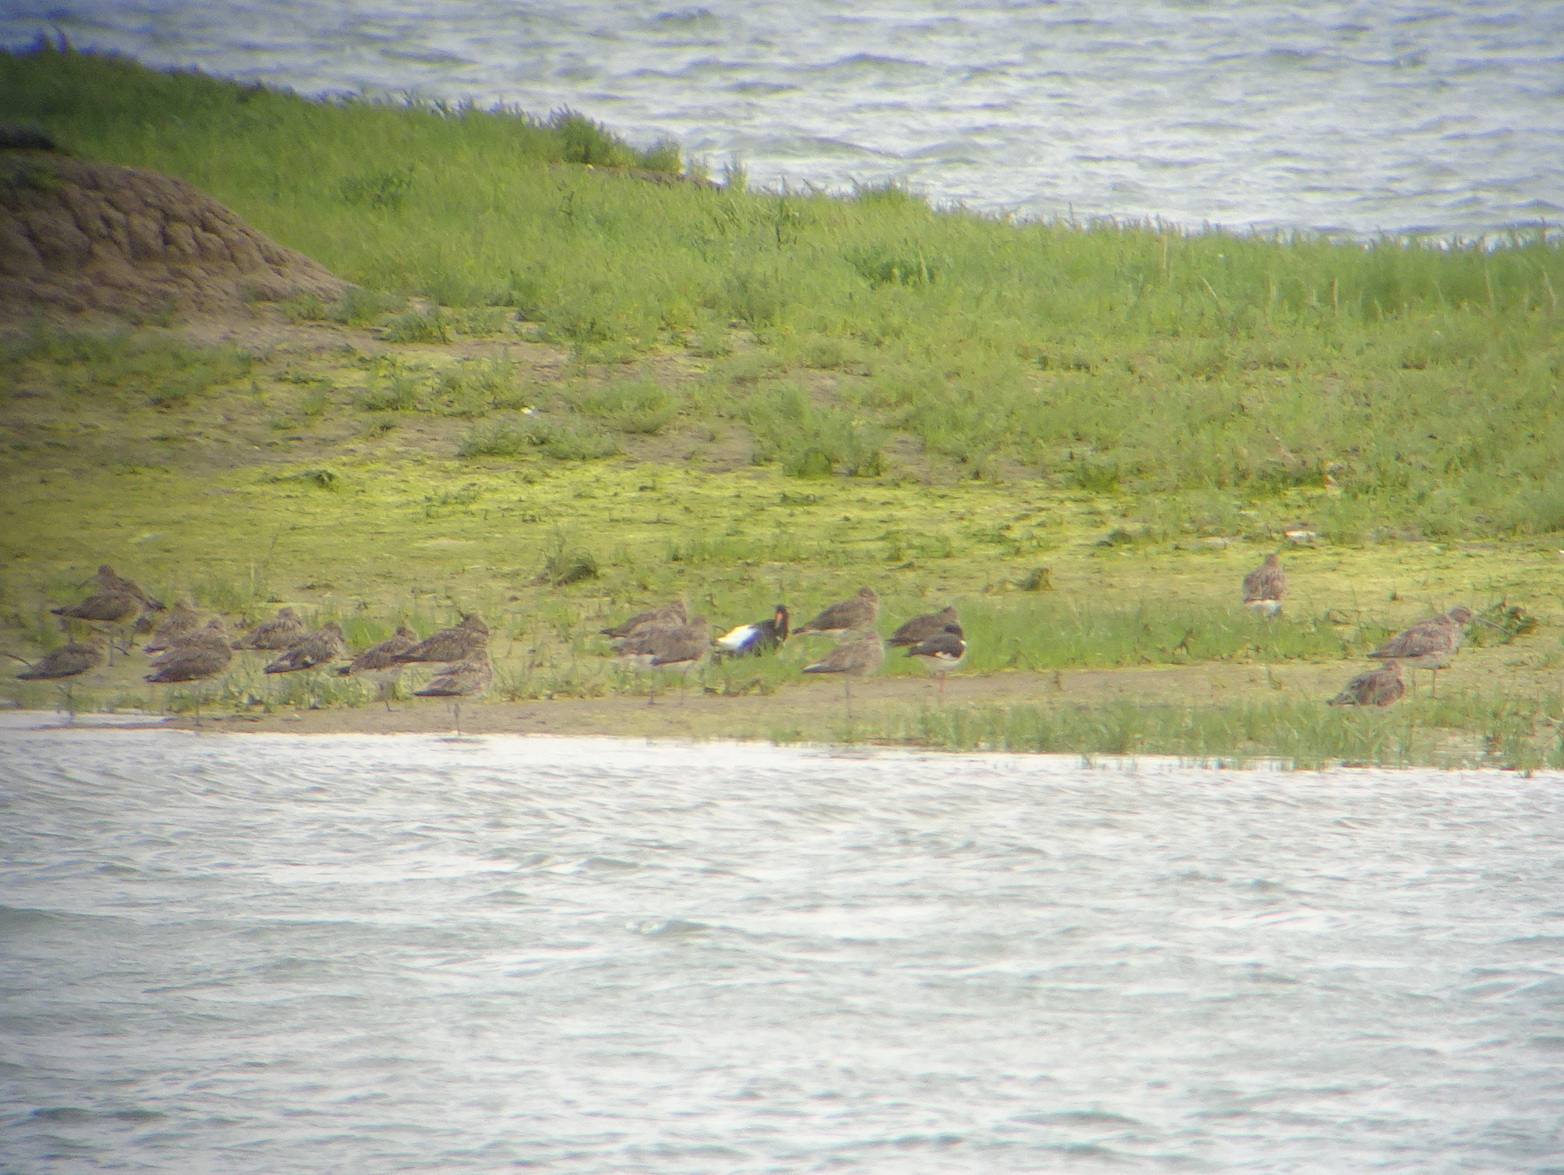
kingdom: Animalia
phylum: Chordata
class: Aves
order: Charadriiformes
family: Scolopacidae
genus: Numenius
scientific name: Numenius arquata
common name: Eurasian curlew
